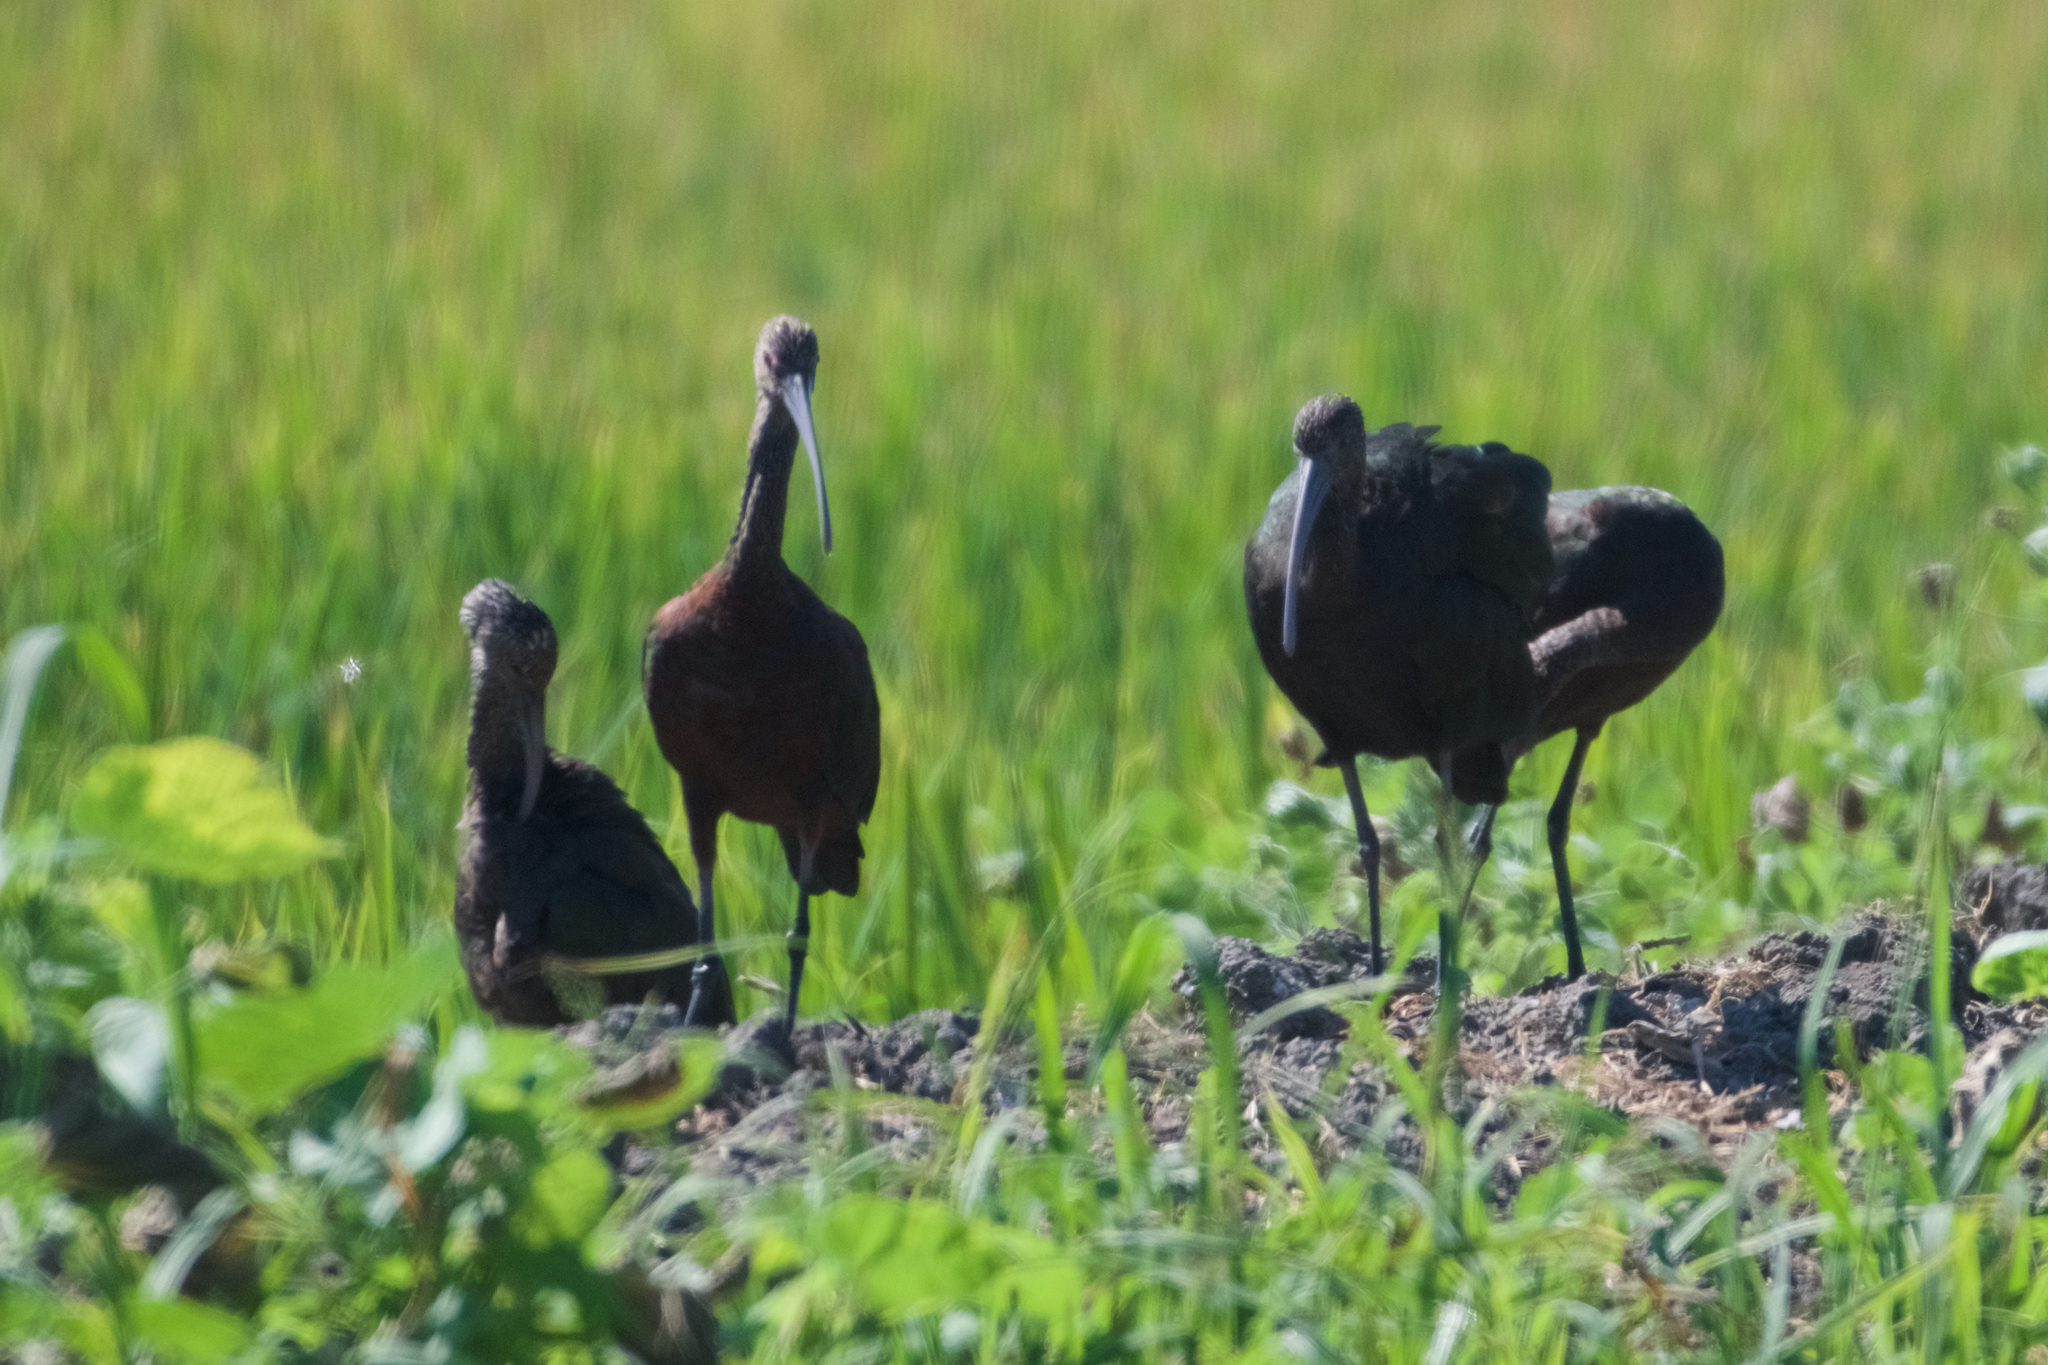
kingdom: Animalia
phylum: Chordata
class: Aves
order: Pelecaniformes
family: Threskiornithidae
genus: Plegadis
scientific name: Plegadis chihi
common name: White-faced ibis
